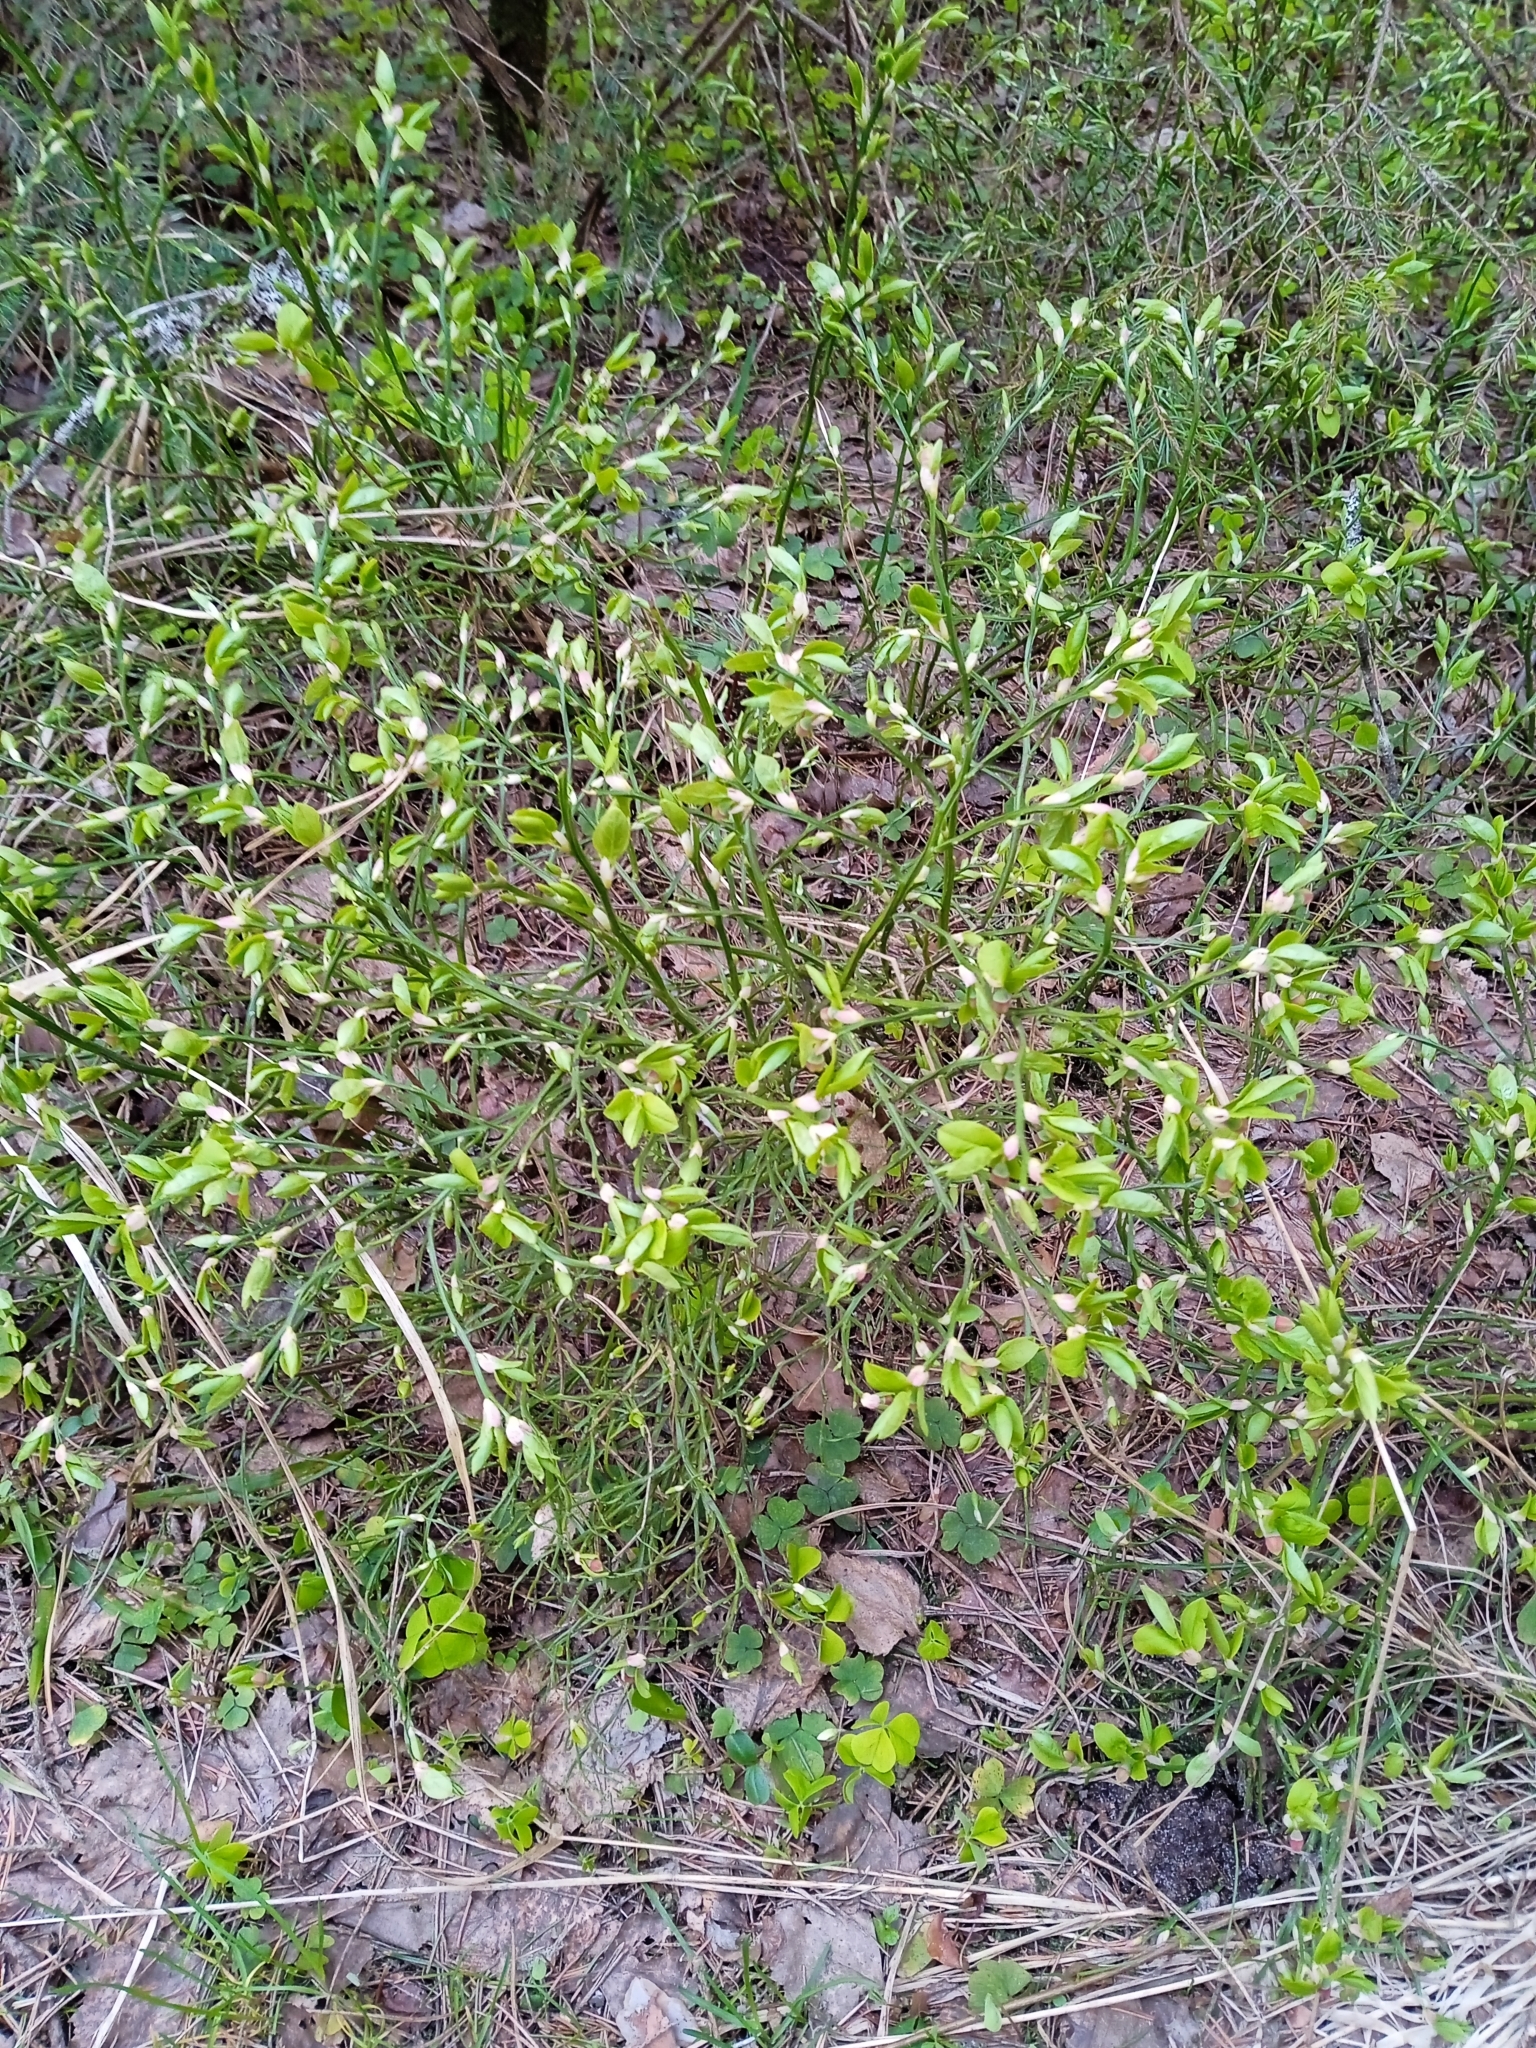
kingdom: Plantae
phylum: Tracheophyta
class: Magnoliopsida
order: Ericales
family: Ericaceae
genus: Vaccinium
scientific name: Vaccinium myrtillus
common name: Bilberry
